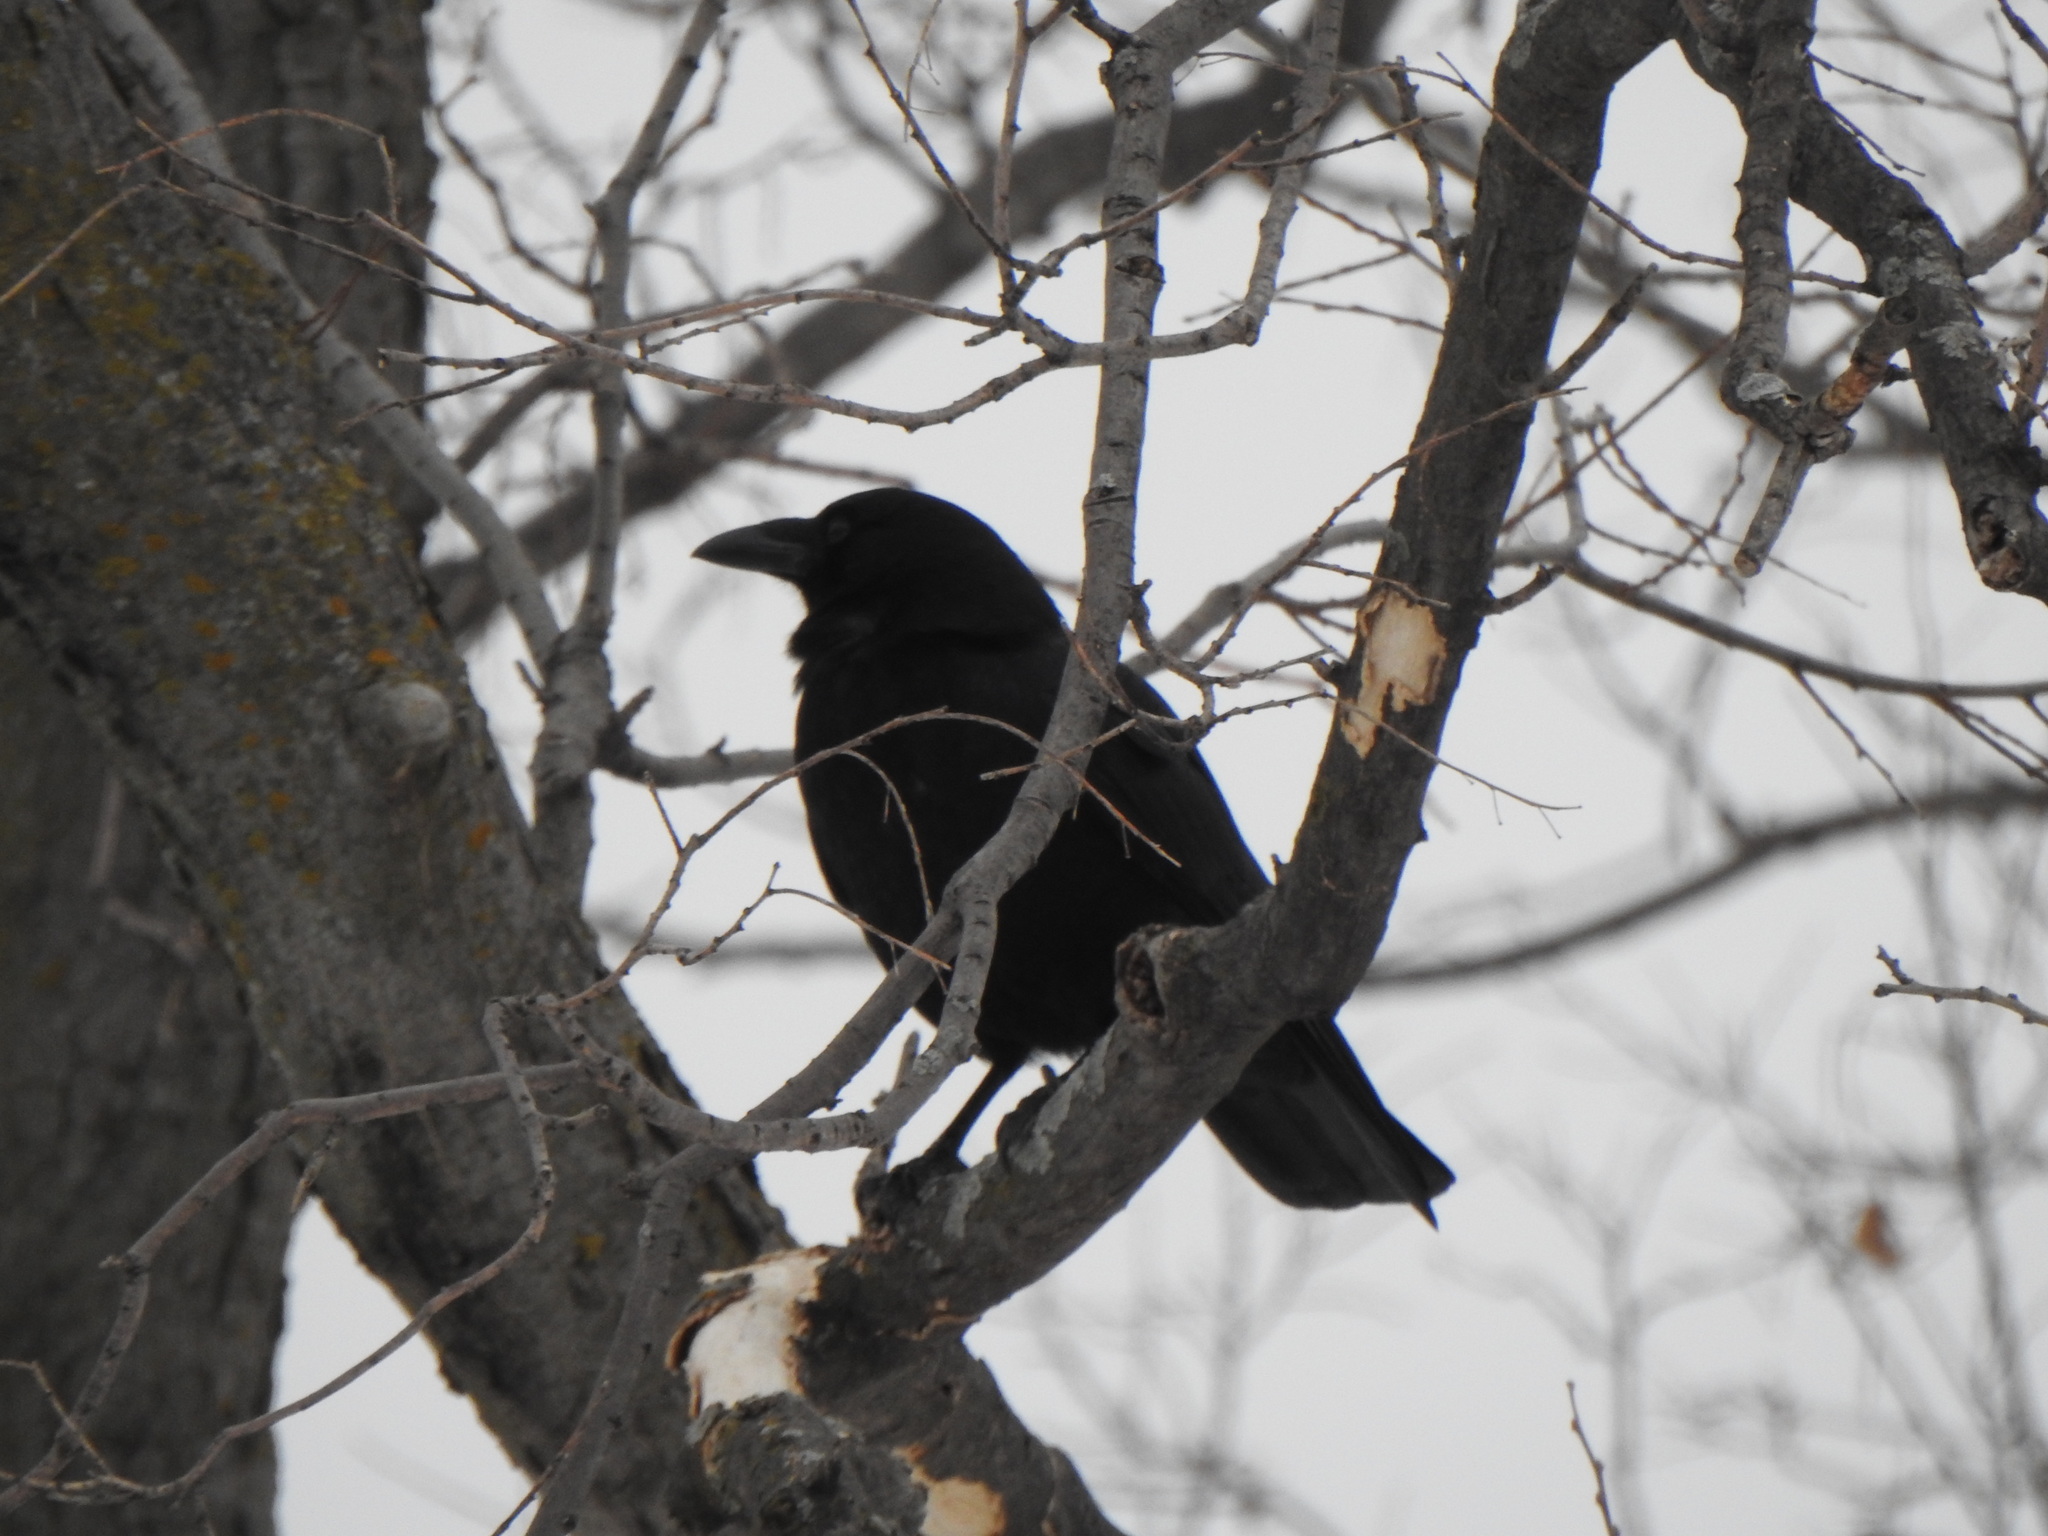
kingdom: Animalia
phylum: Chordata
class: Aves
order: Passeriformes
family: Corvidae
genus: Corvus
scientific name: Corvus brachyrhynchos
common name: American crow
